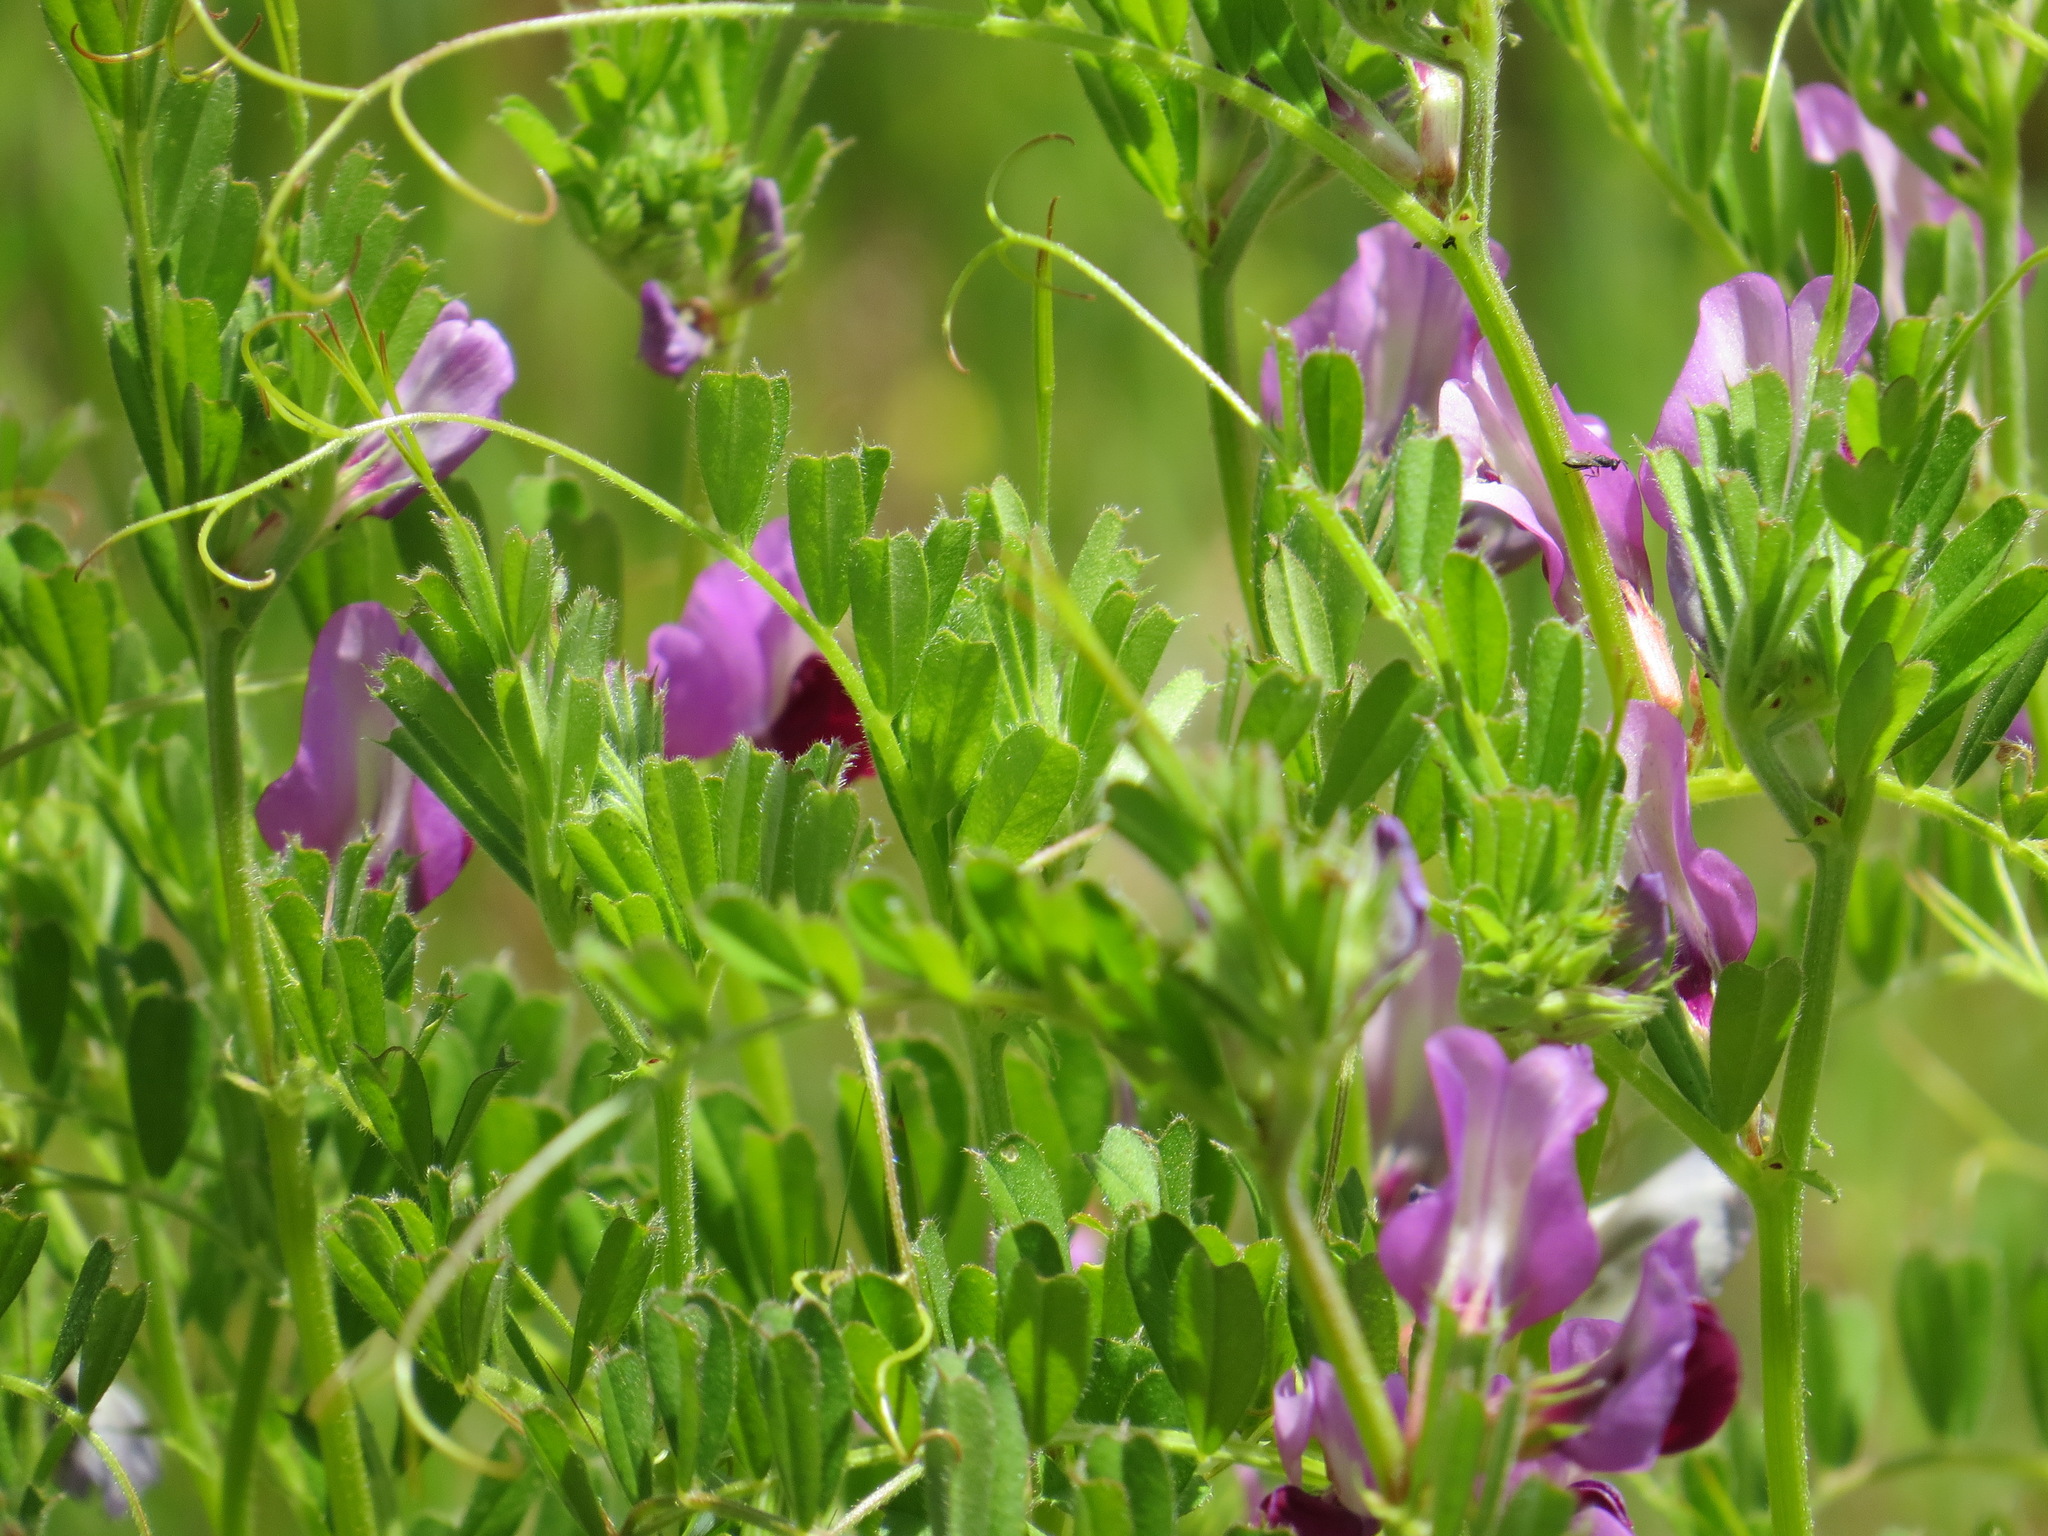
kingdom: Plantae
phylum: Tracheophyta
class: Magnoliopsida
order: Fabales
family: Fabaceae
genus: Vicia
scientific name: Vicia sativa
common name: Garden vetch
